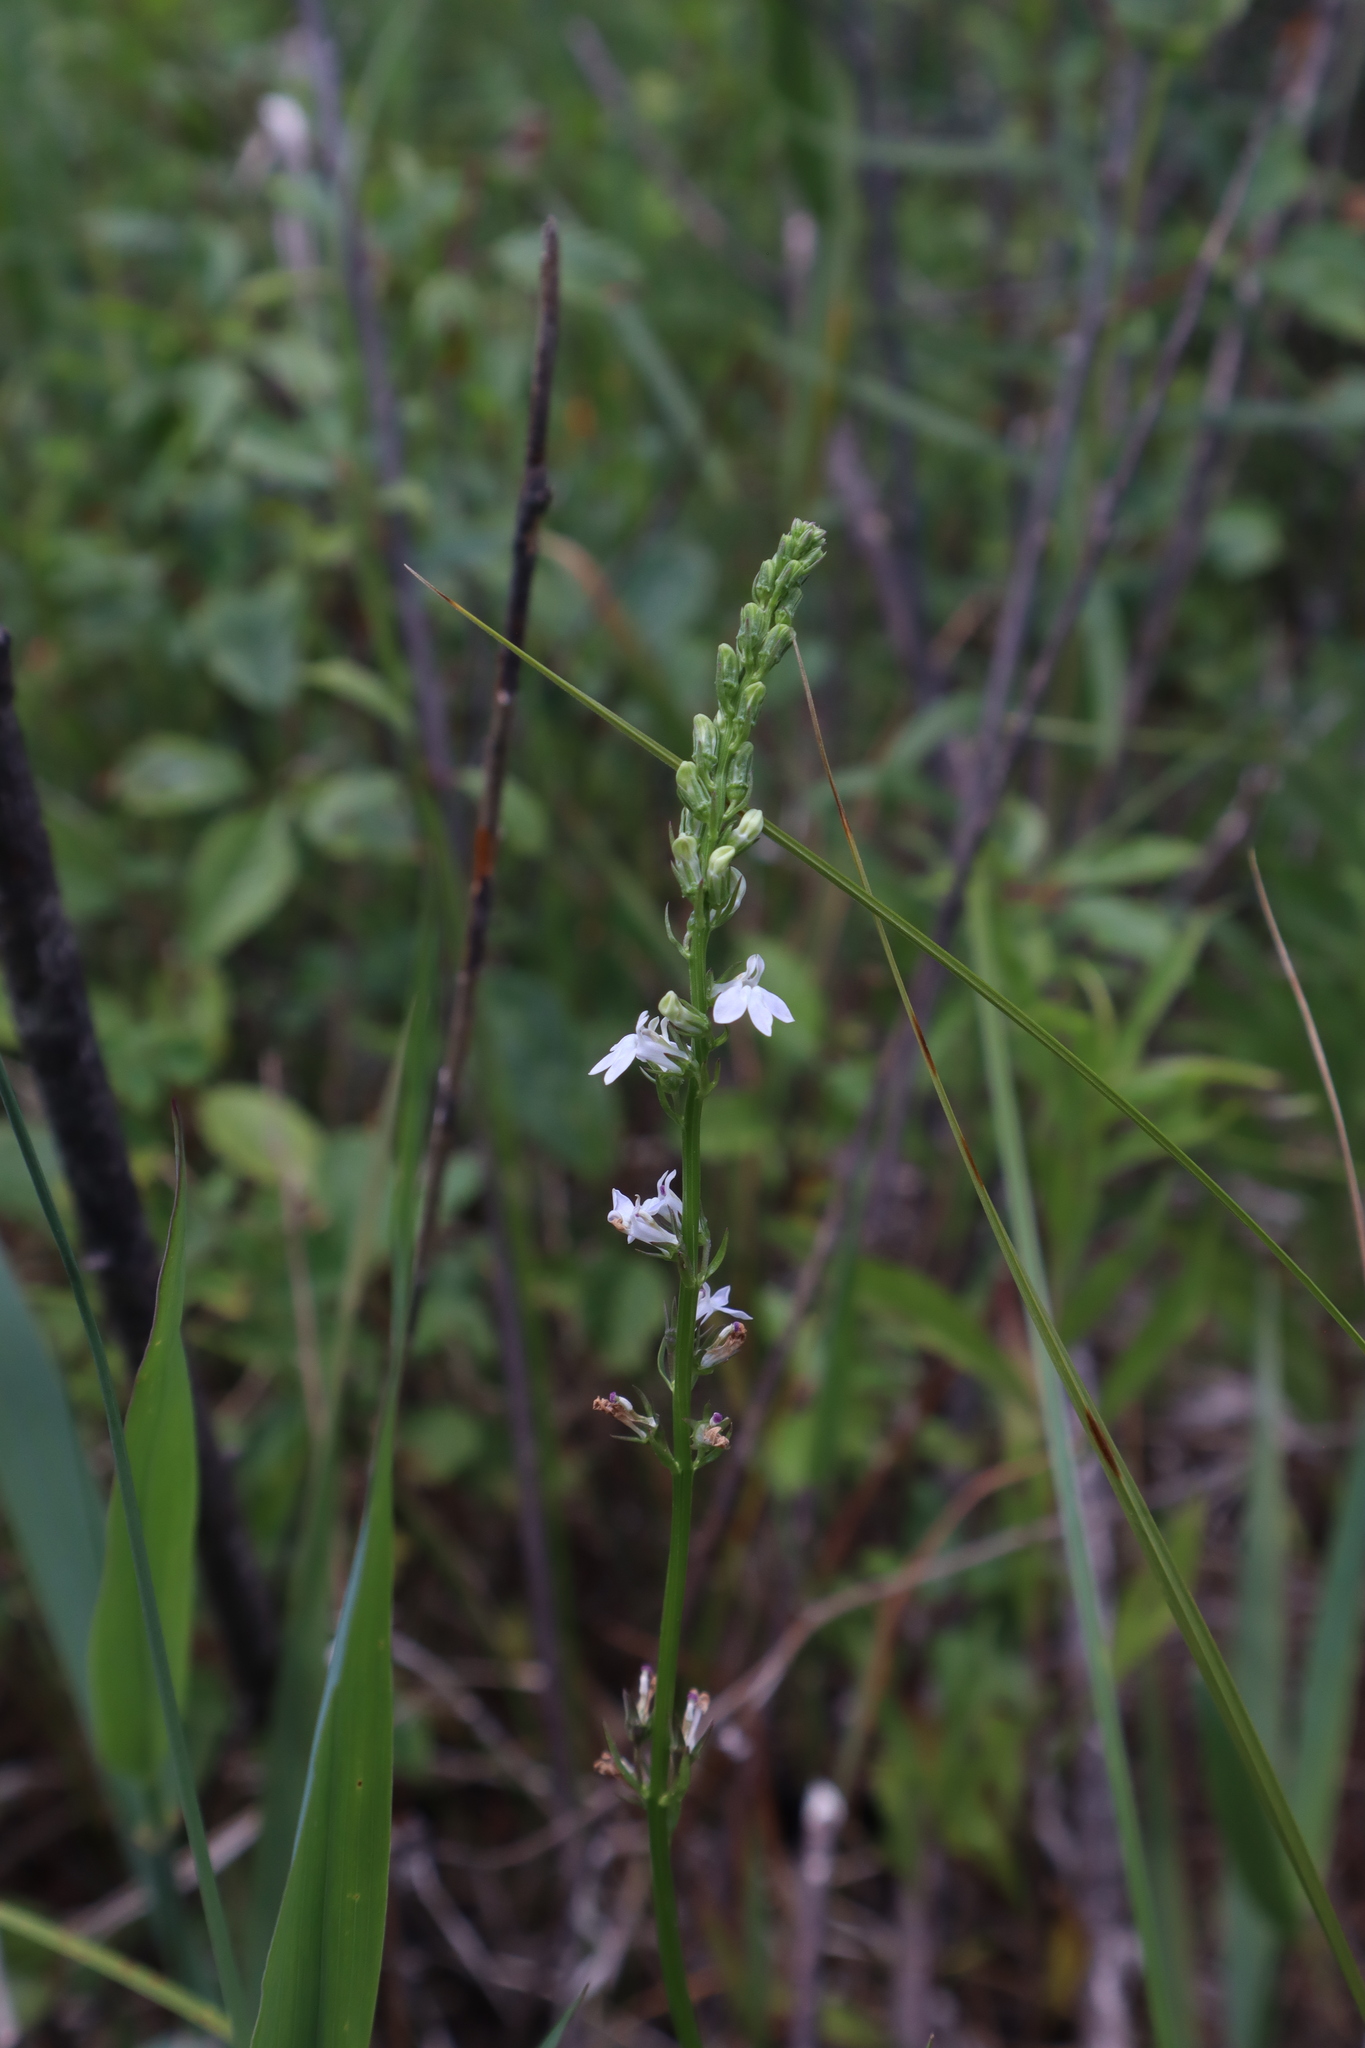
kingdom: Plantae
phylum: Tracheophyta
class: Magnoliopsida
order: Asterales
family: Campanulaceae
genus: Lobelia
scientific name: Lobelia spicata
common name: Pale-spike lobelia
